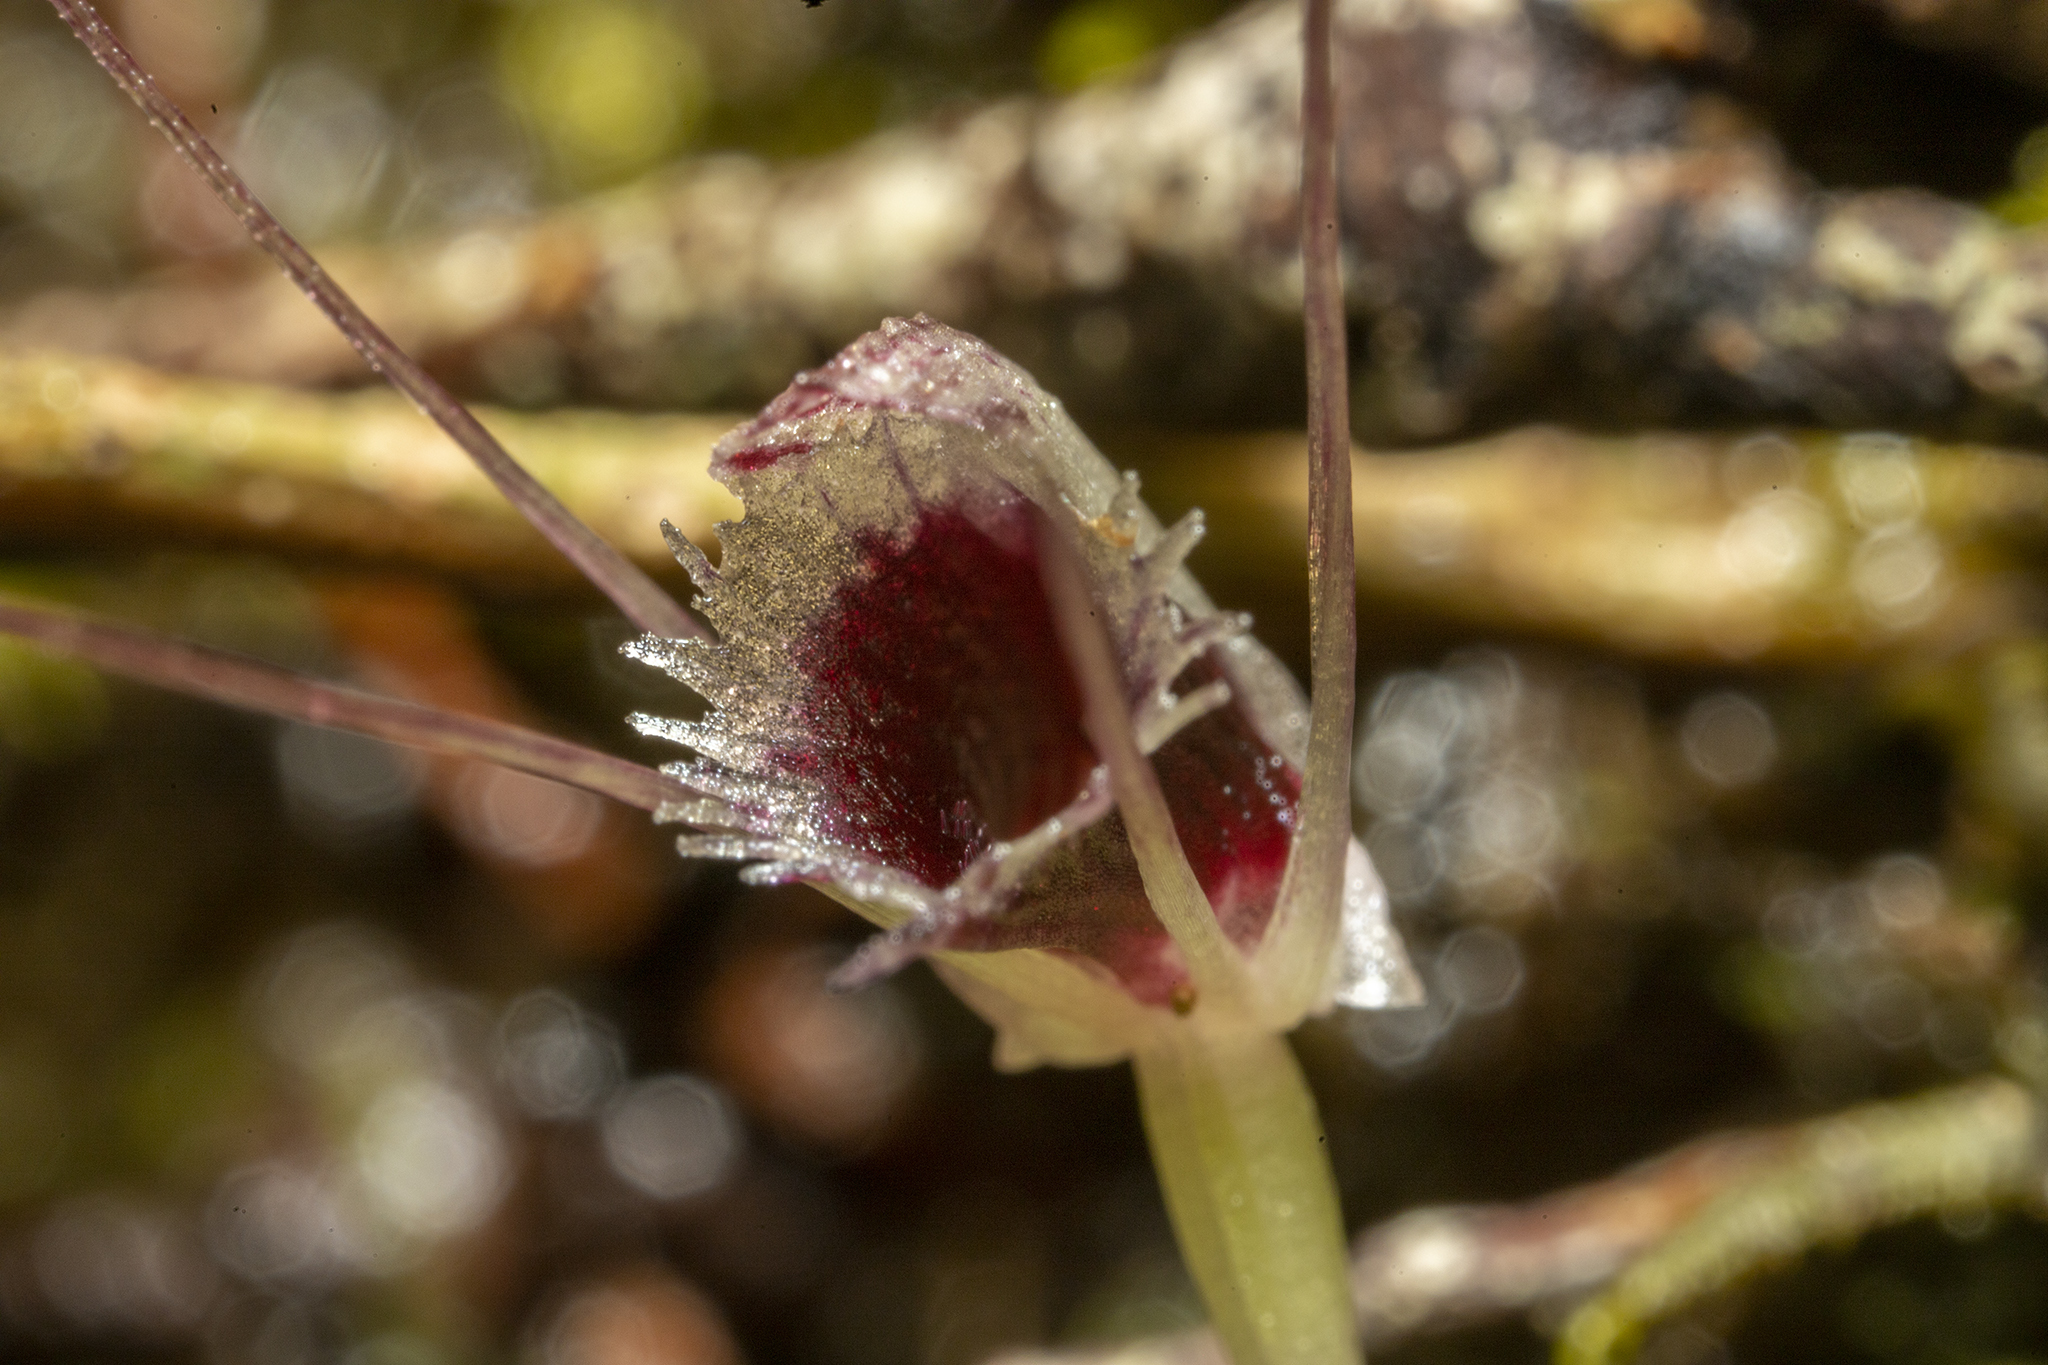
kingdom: Plantae
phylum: Tracheophyta
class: Liliopsida
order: Asparagales
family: Orchidaceae
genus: Corybas
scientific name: Corybas oblongus
